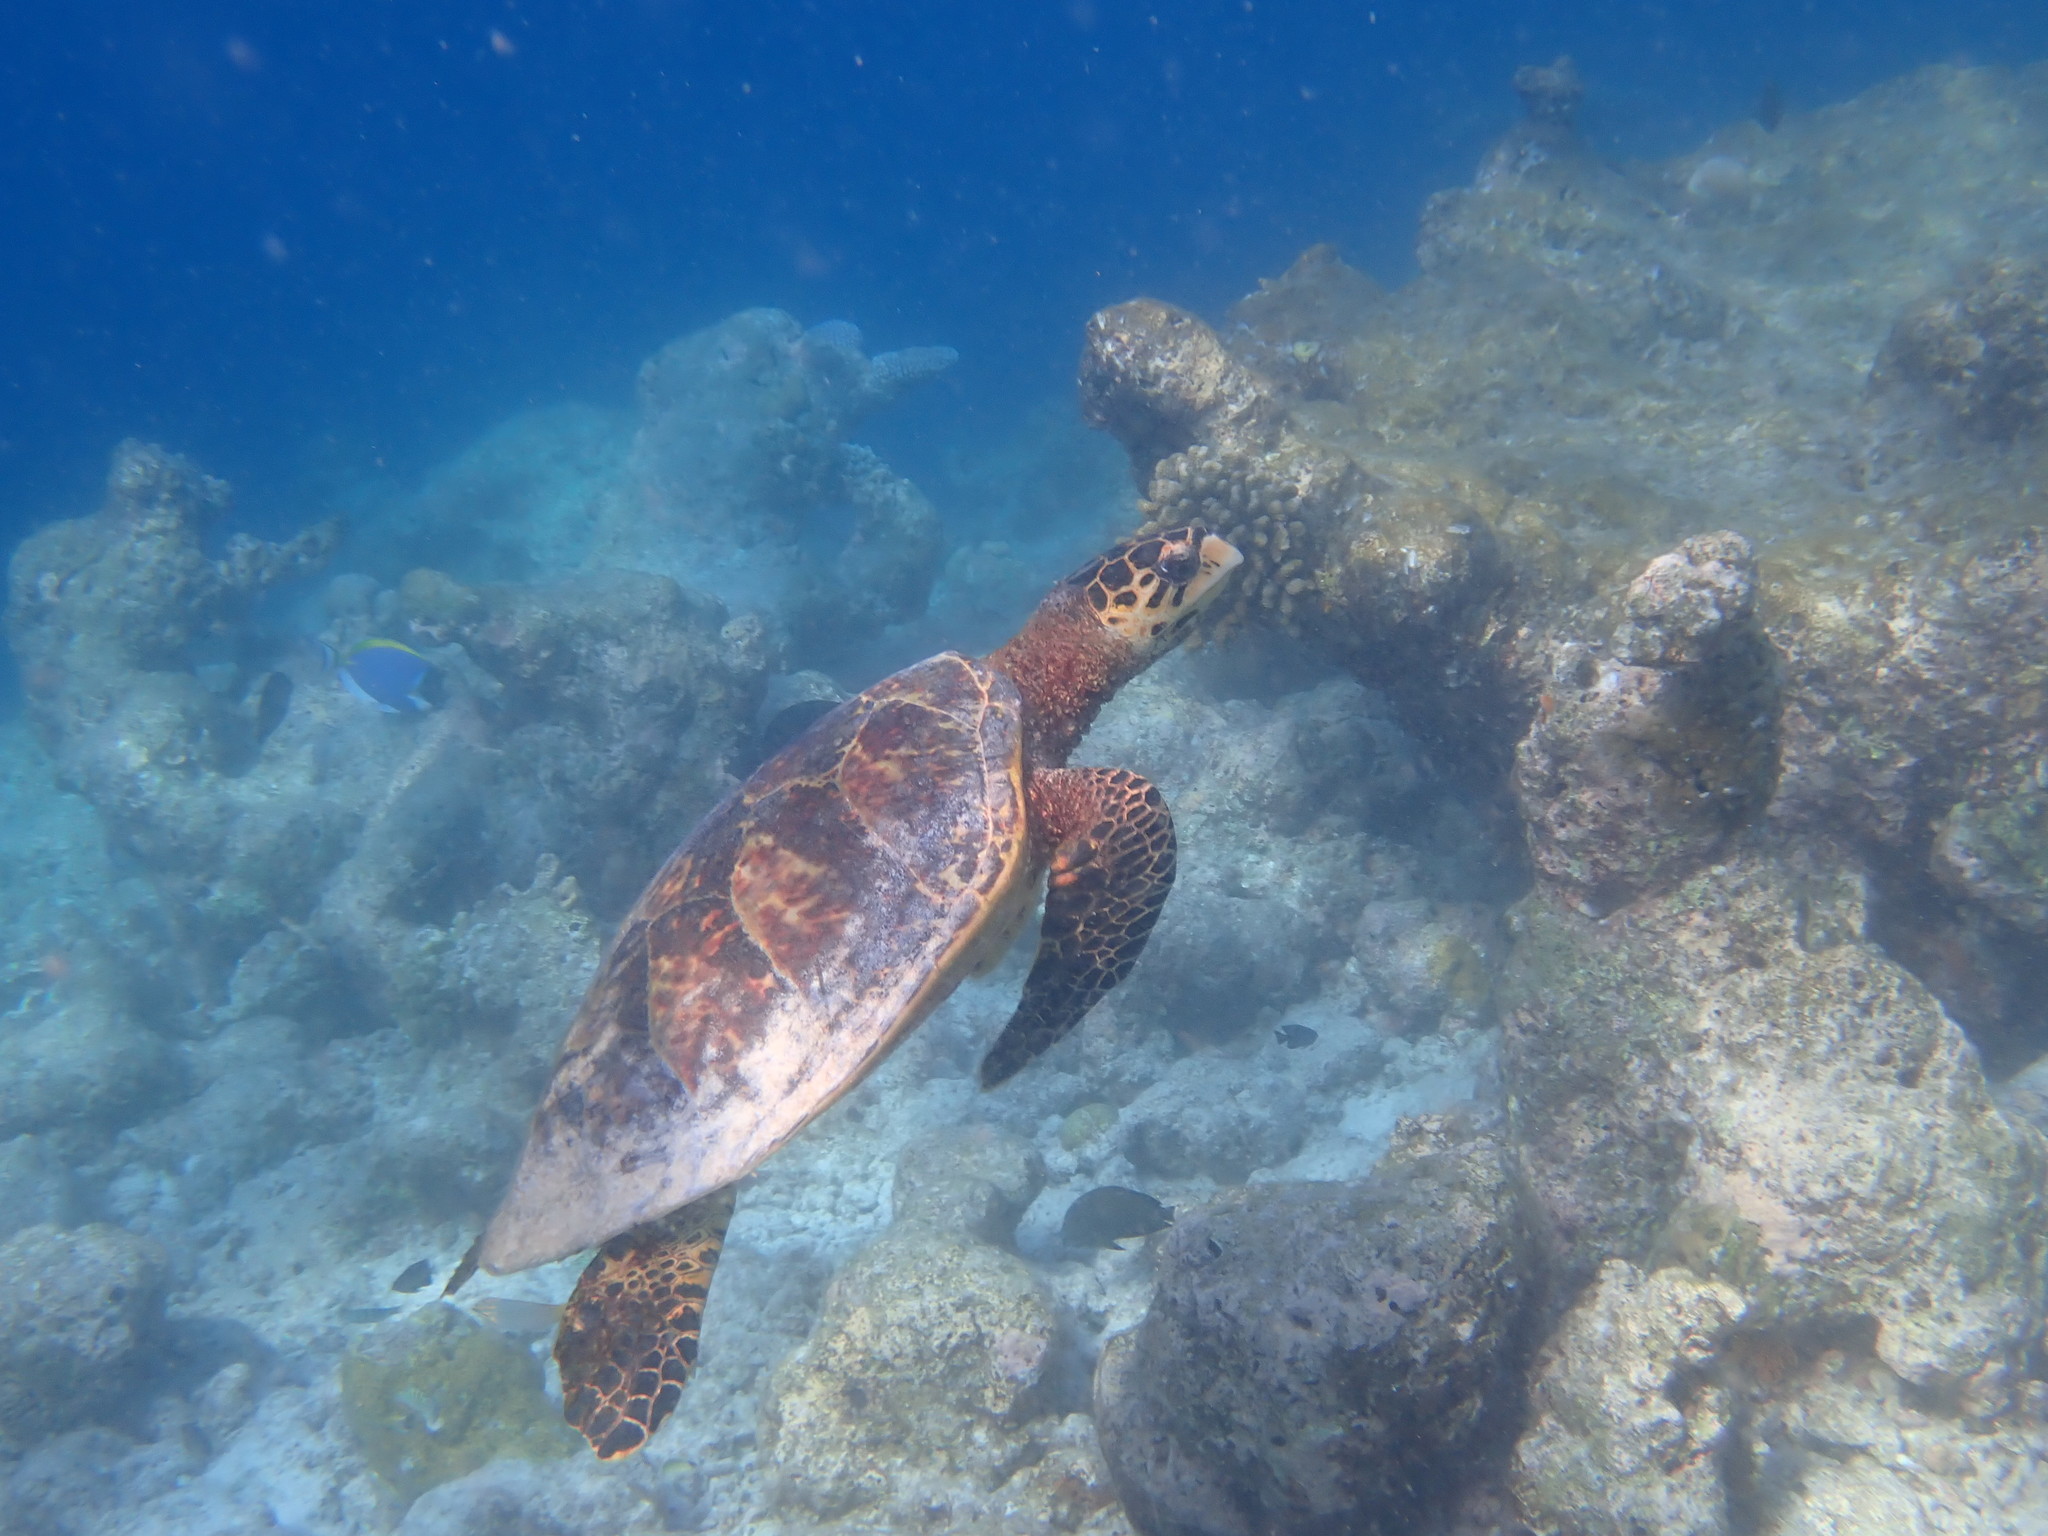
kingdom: Animalia
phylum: Chordata
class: Testudines
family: Cheloniidae
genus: Eretmochelys
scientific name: Eretmochelys imbricata
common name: Hawksbill turtle
